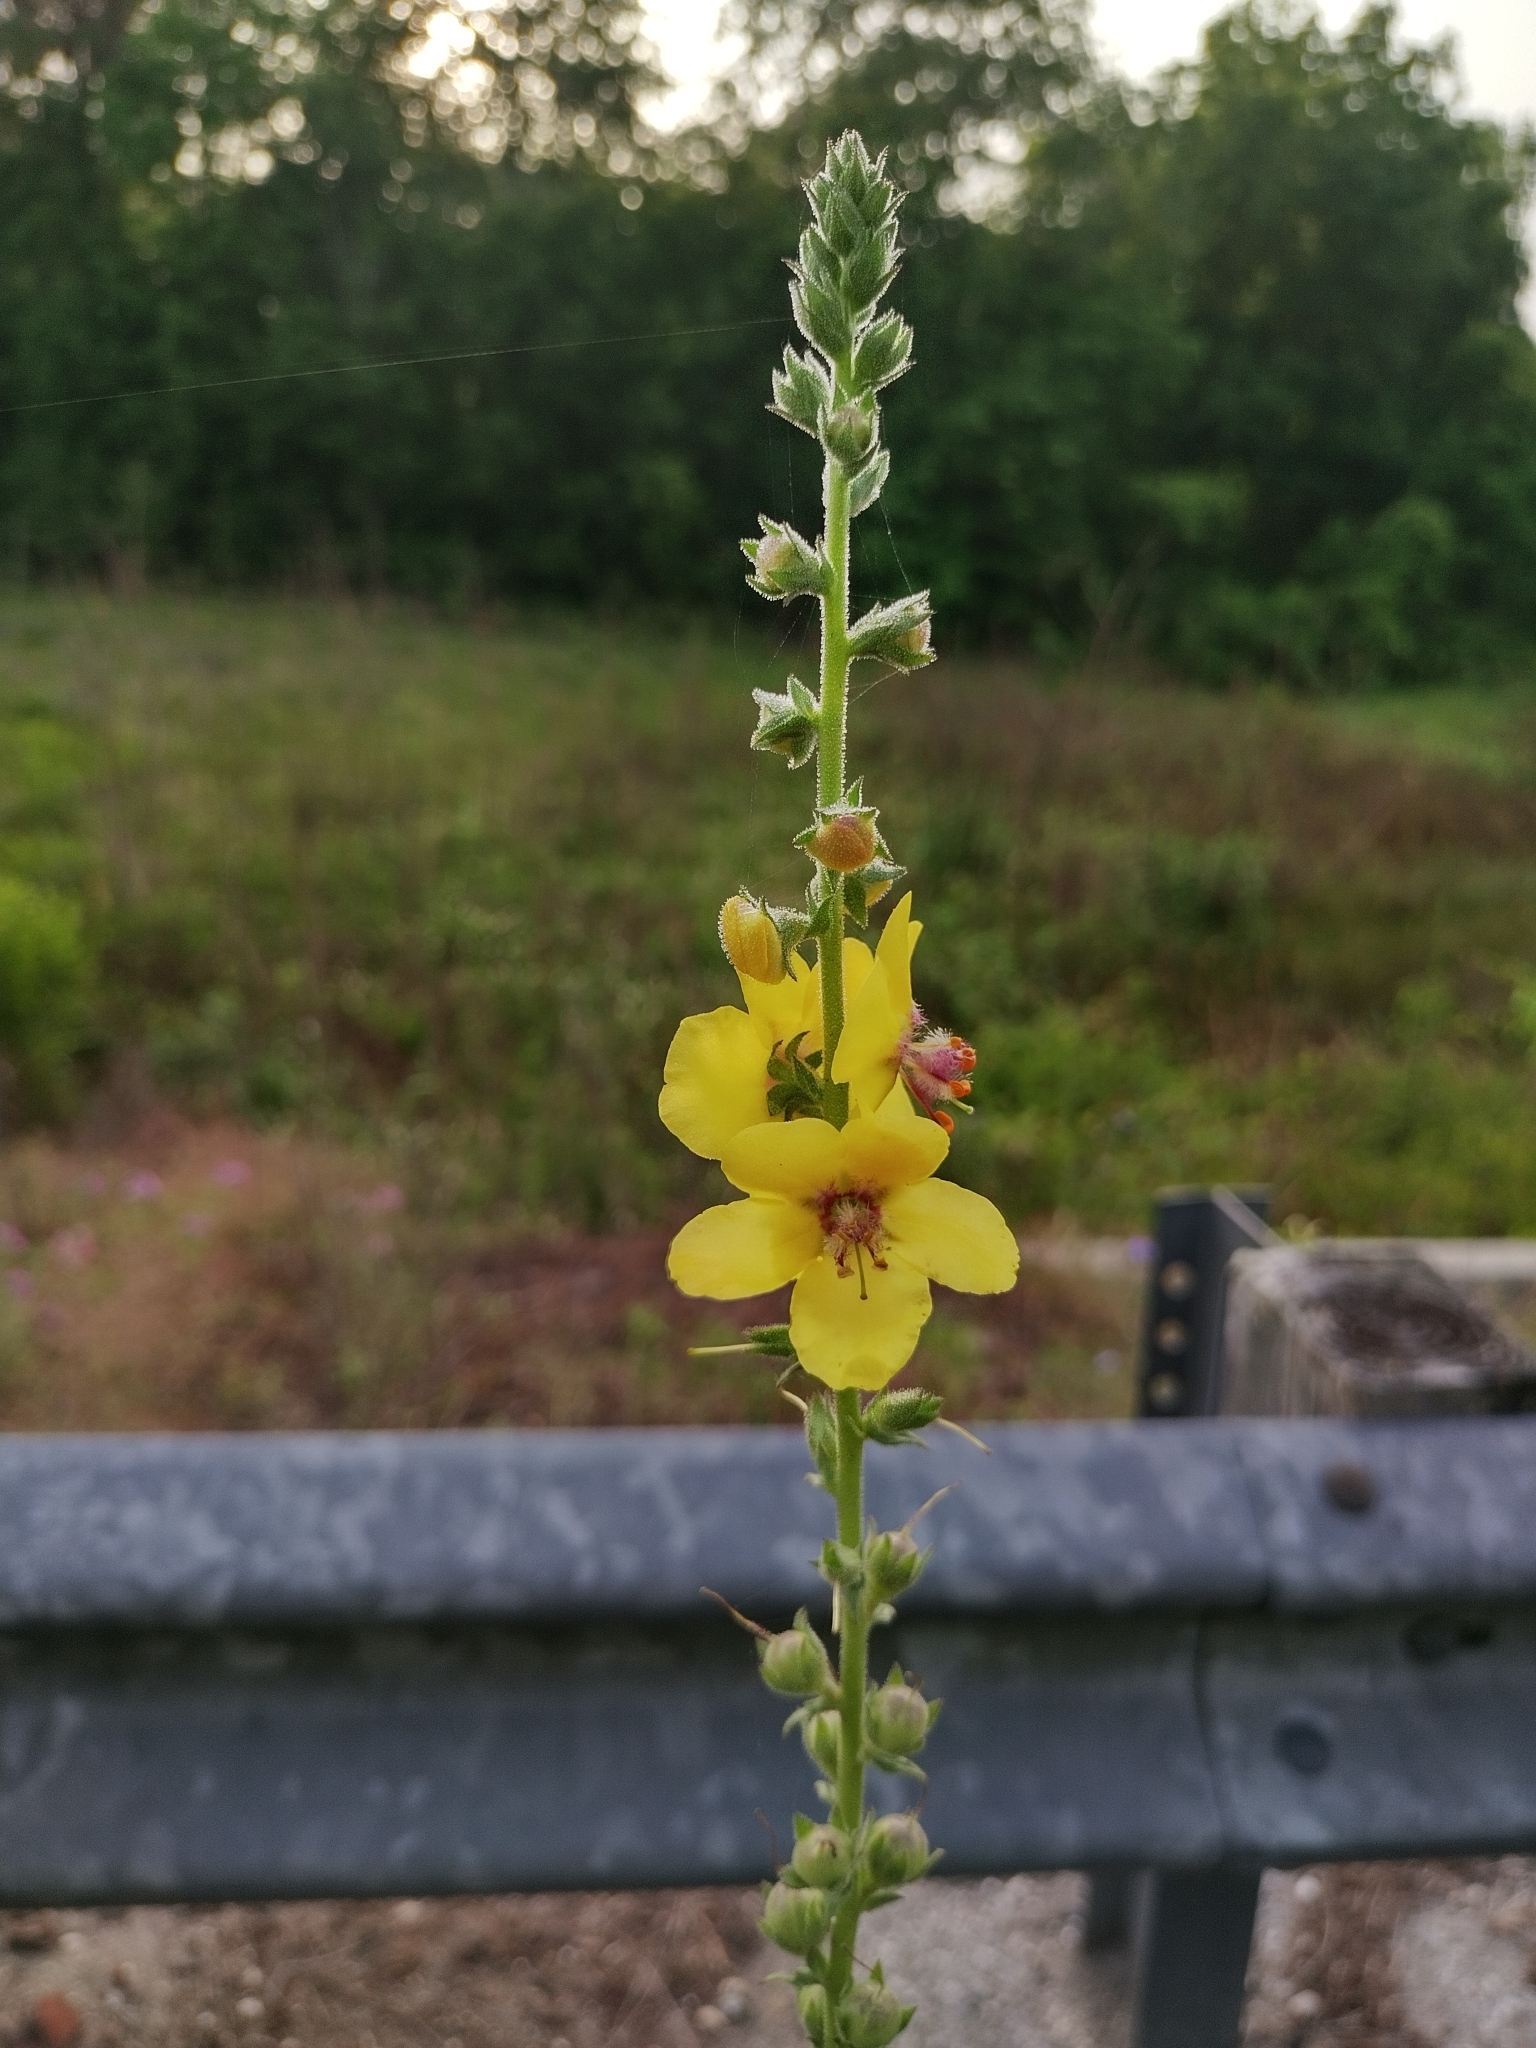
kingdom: Plantae
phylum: Tracheophyta
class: Magnoliopsida
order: Lamiales
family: Scrophulariaceae
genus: Verbascum
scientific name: Verbascum virgatum
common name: Twiggy mullein
